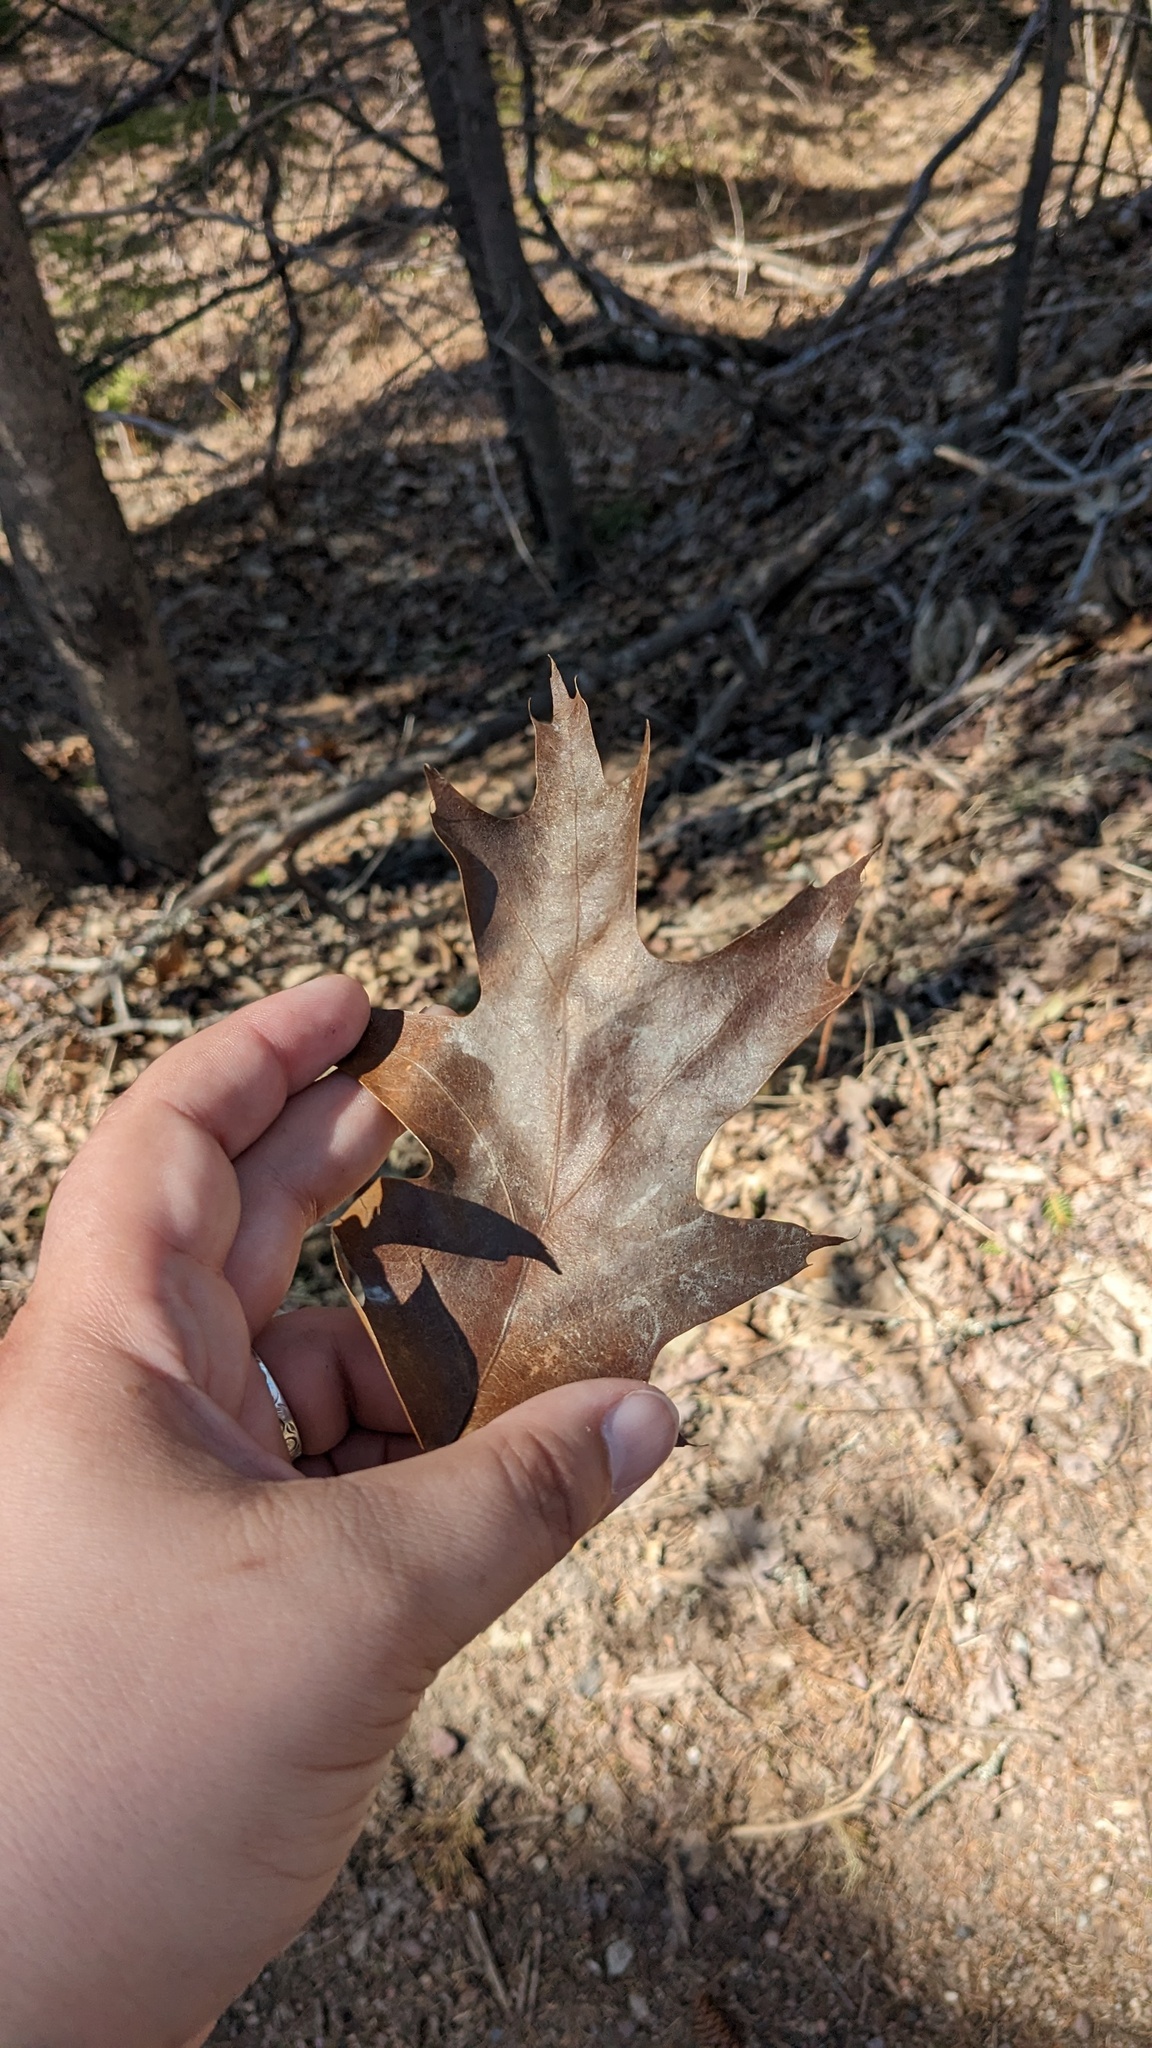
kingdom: Plantae
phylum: Tracheophyta
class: Magnoliopsida
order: Fagales
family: Fagaceae
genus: Quercus
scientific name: Quercus rubra
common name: Red oak
